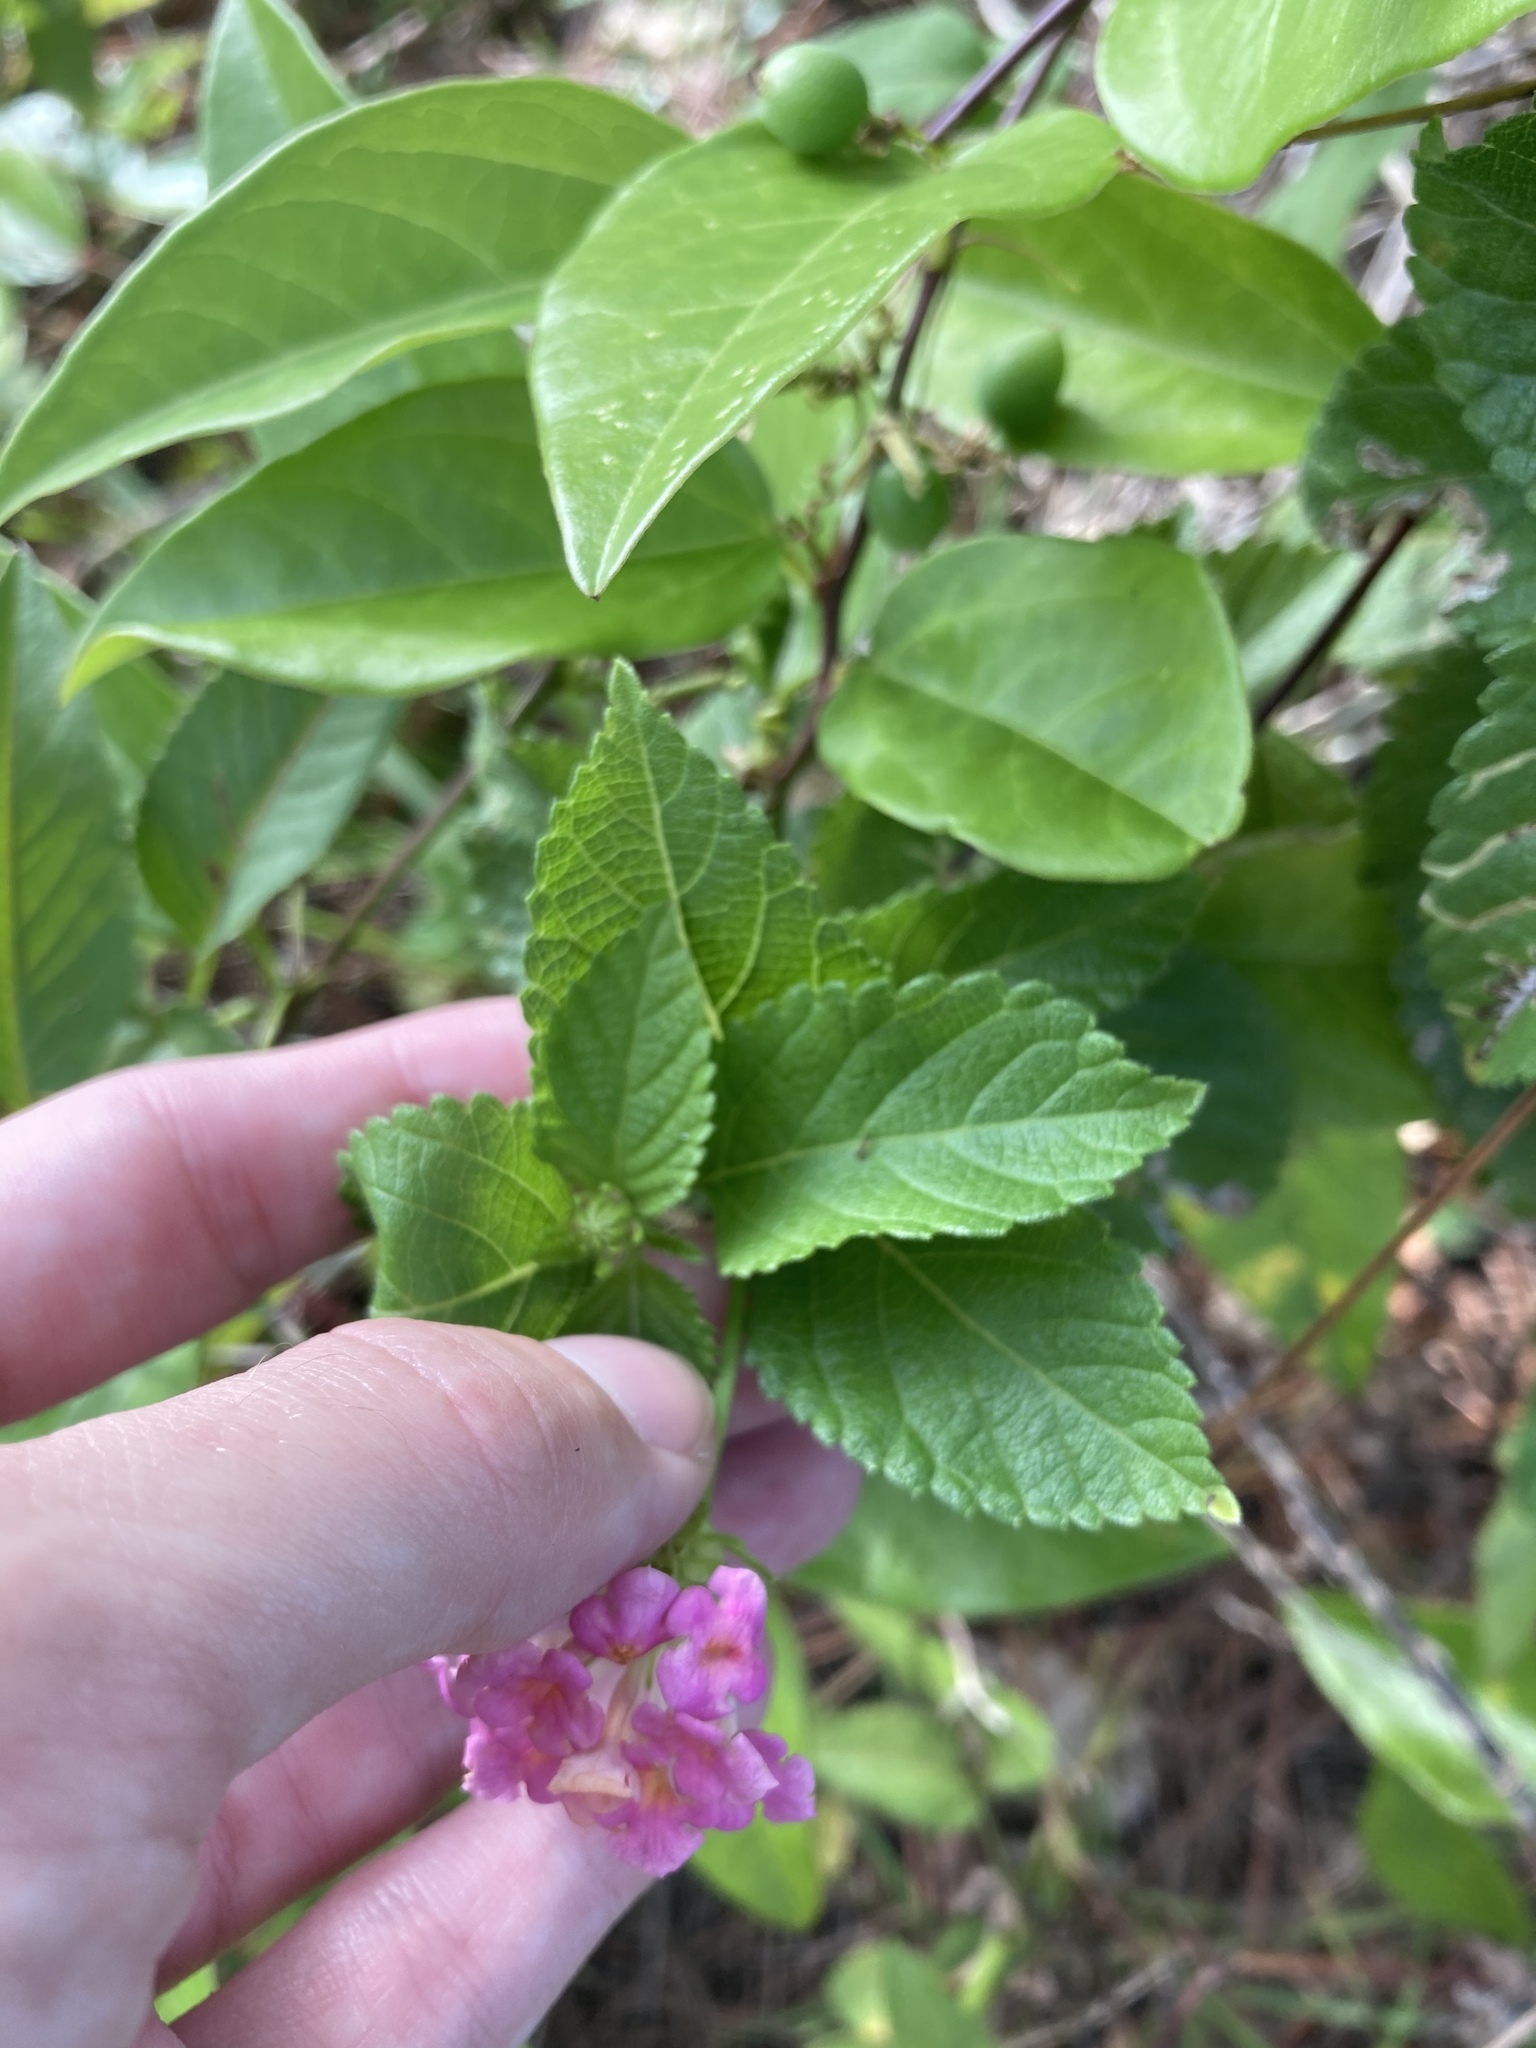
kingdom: Plantae
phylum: Tracheophyta
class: Magnoliopsida
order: Lamiales
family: Verbenaceae
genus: Lantana
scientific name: Lantana strigocamara
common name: Lantana
